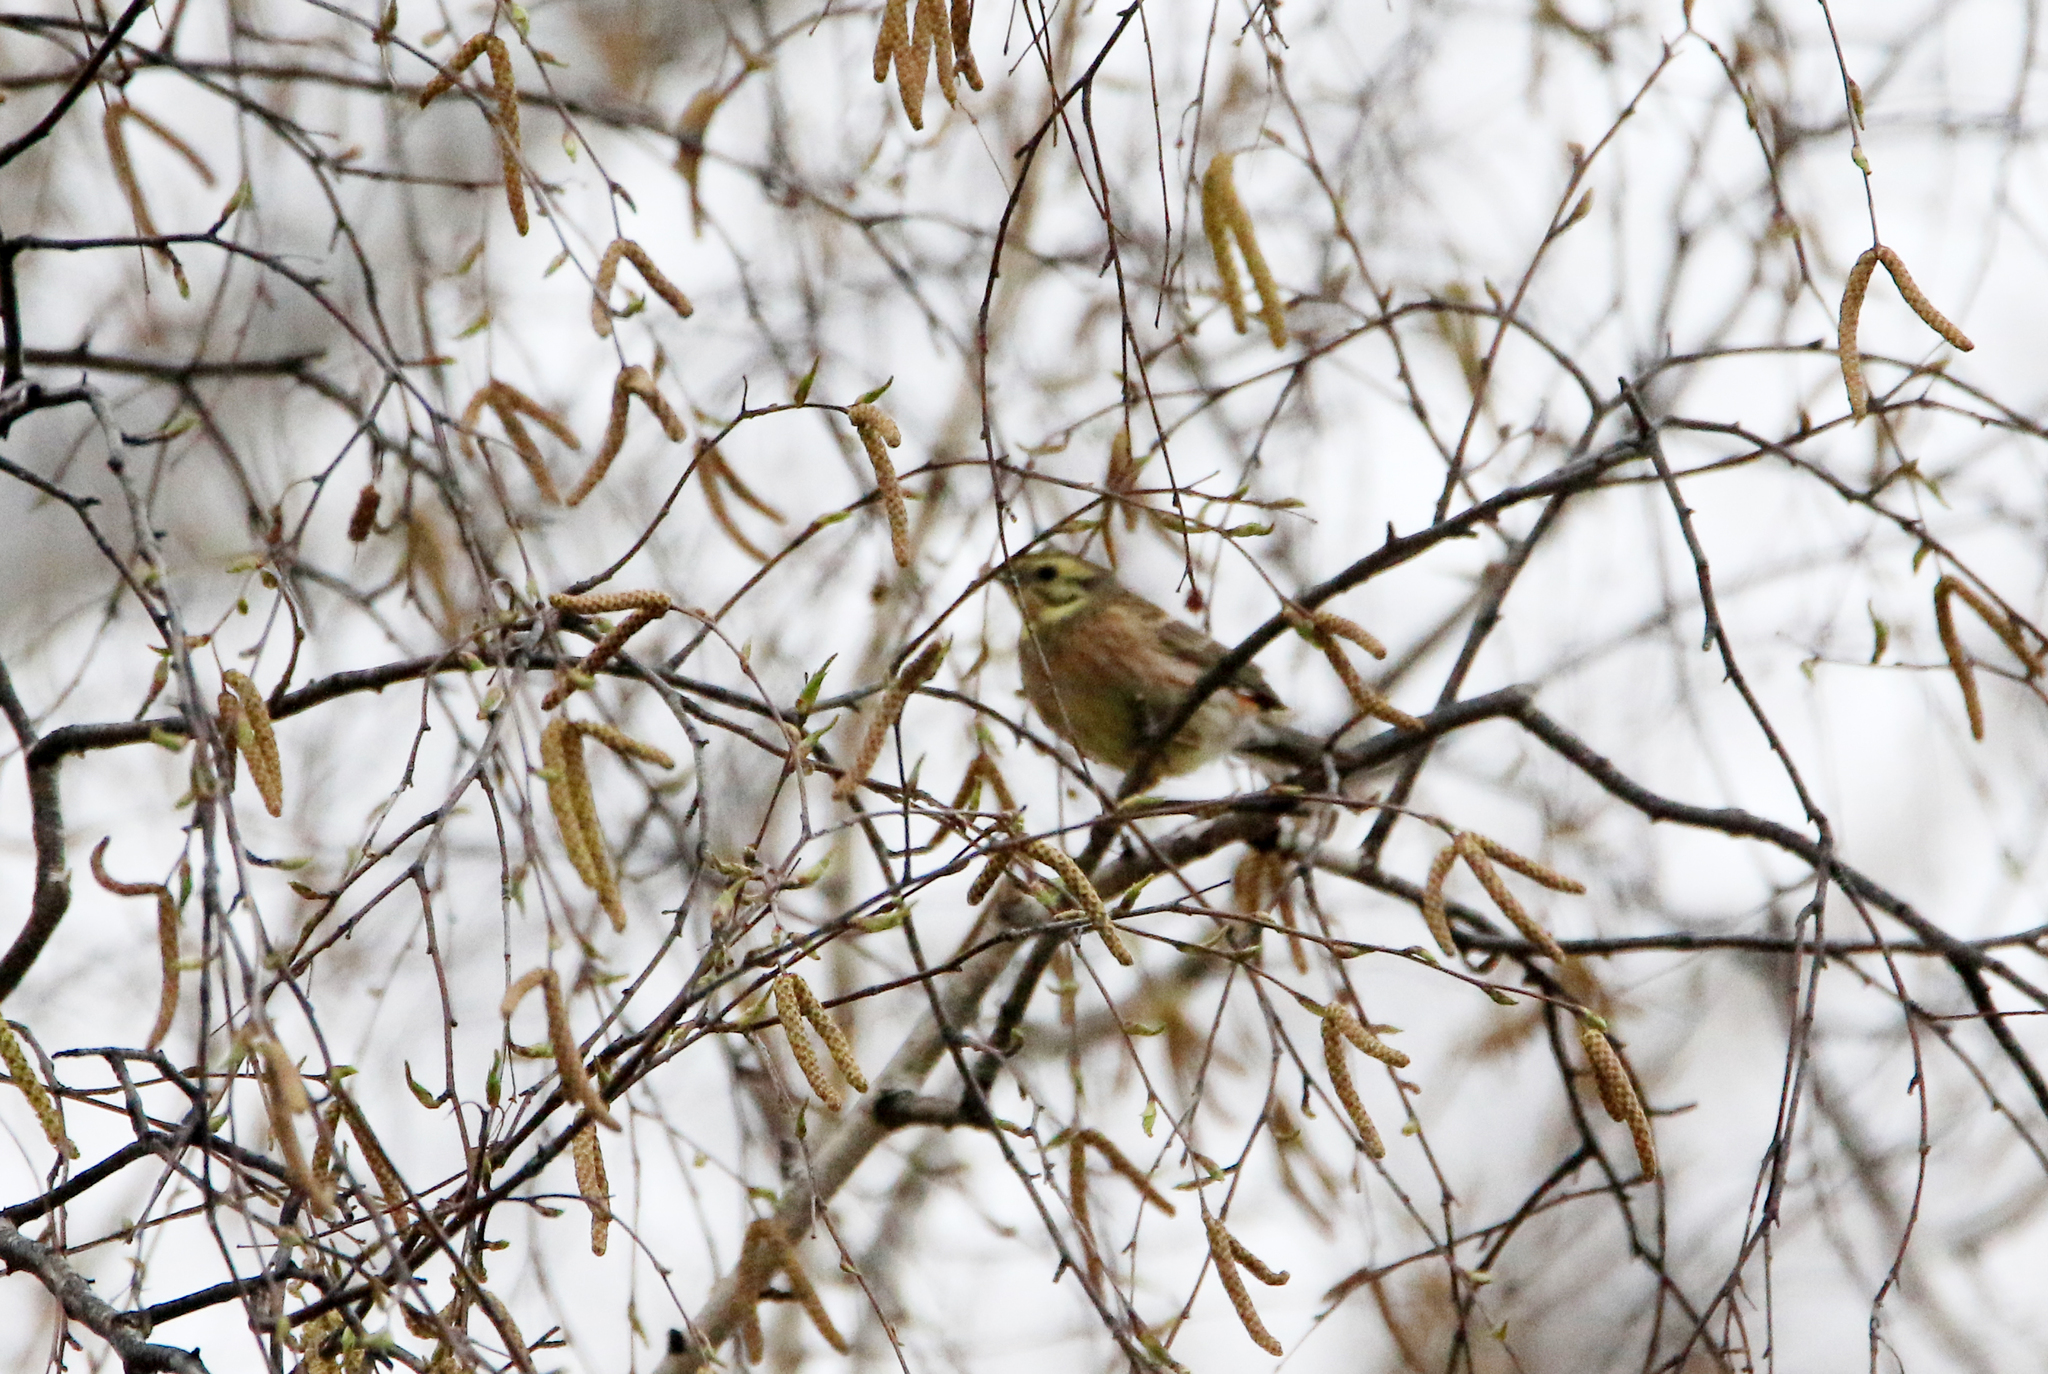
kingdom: Animalia
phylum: Chordata
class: Aves
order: Passeriformes
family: Emberizidae
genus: Emberiza
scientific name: Emberiza citrinella
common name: Yellowhammer
